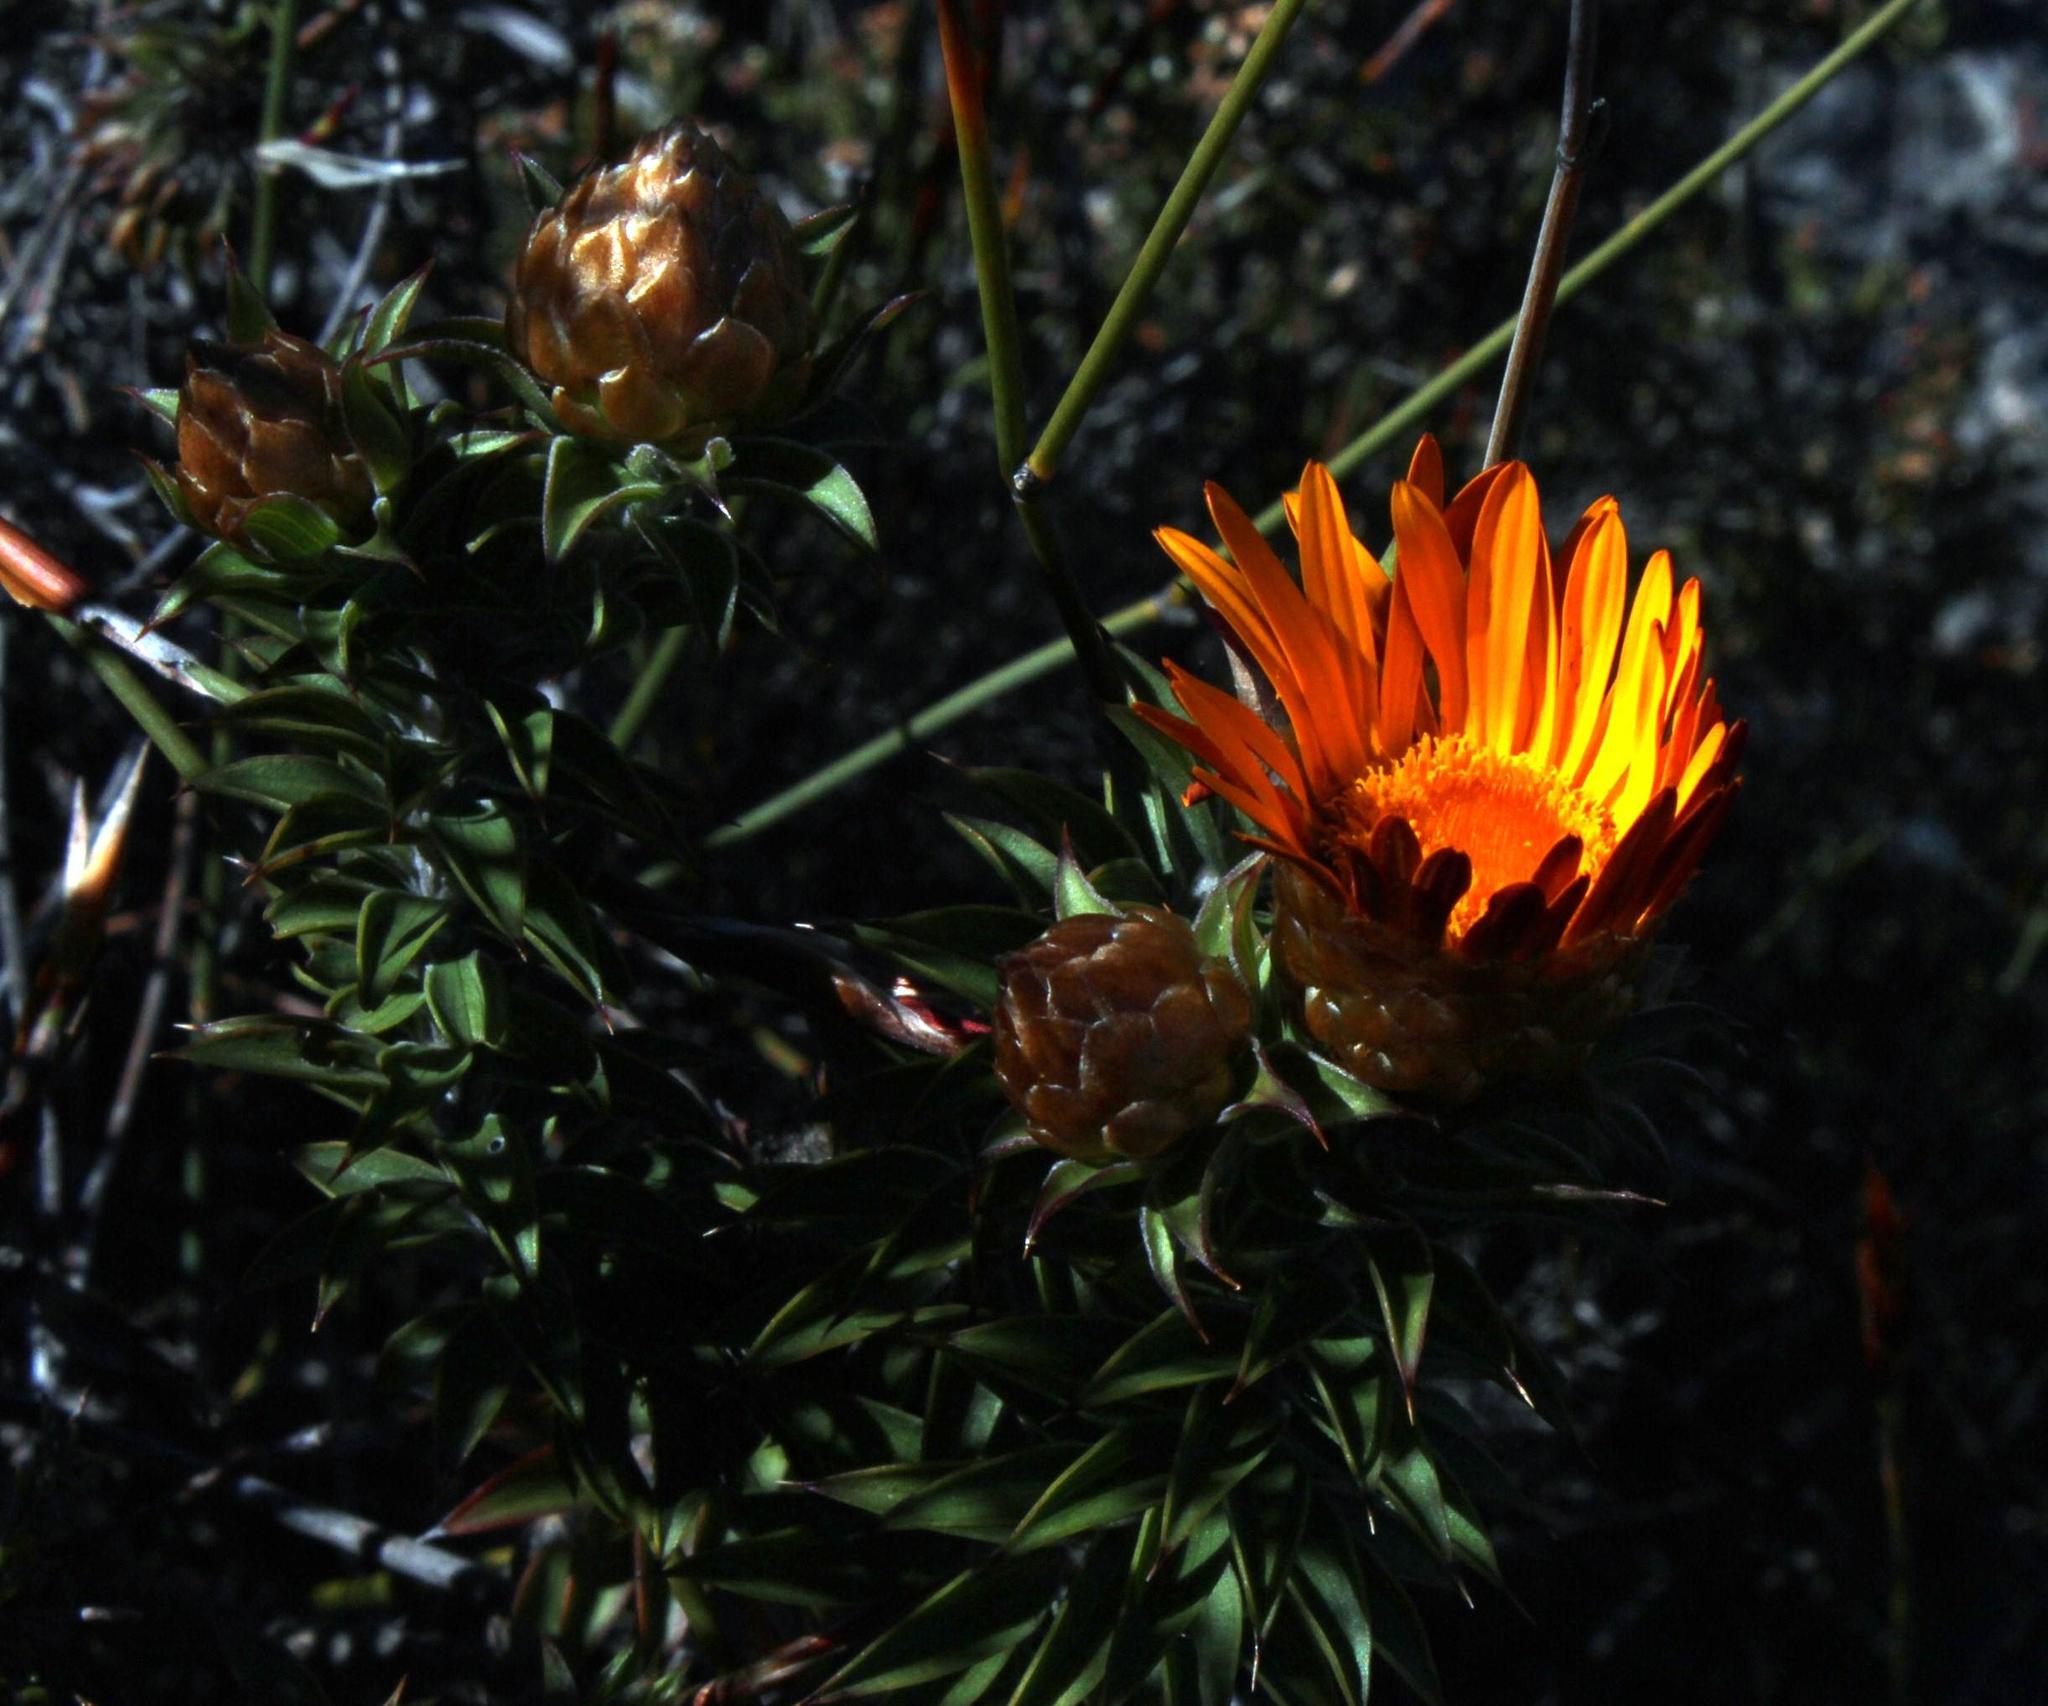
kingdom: Plantae
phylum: Tracheophyta
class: Magnoliopsida
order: Asterales
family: Asteraceae
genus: Oedera
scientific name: Oedera speciosa
